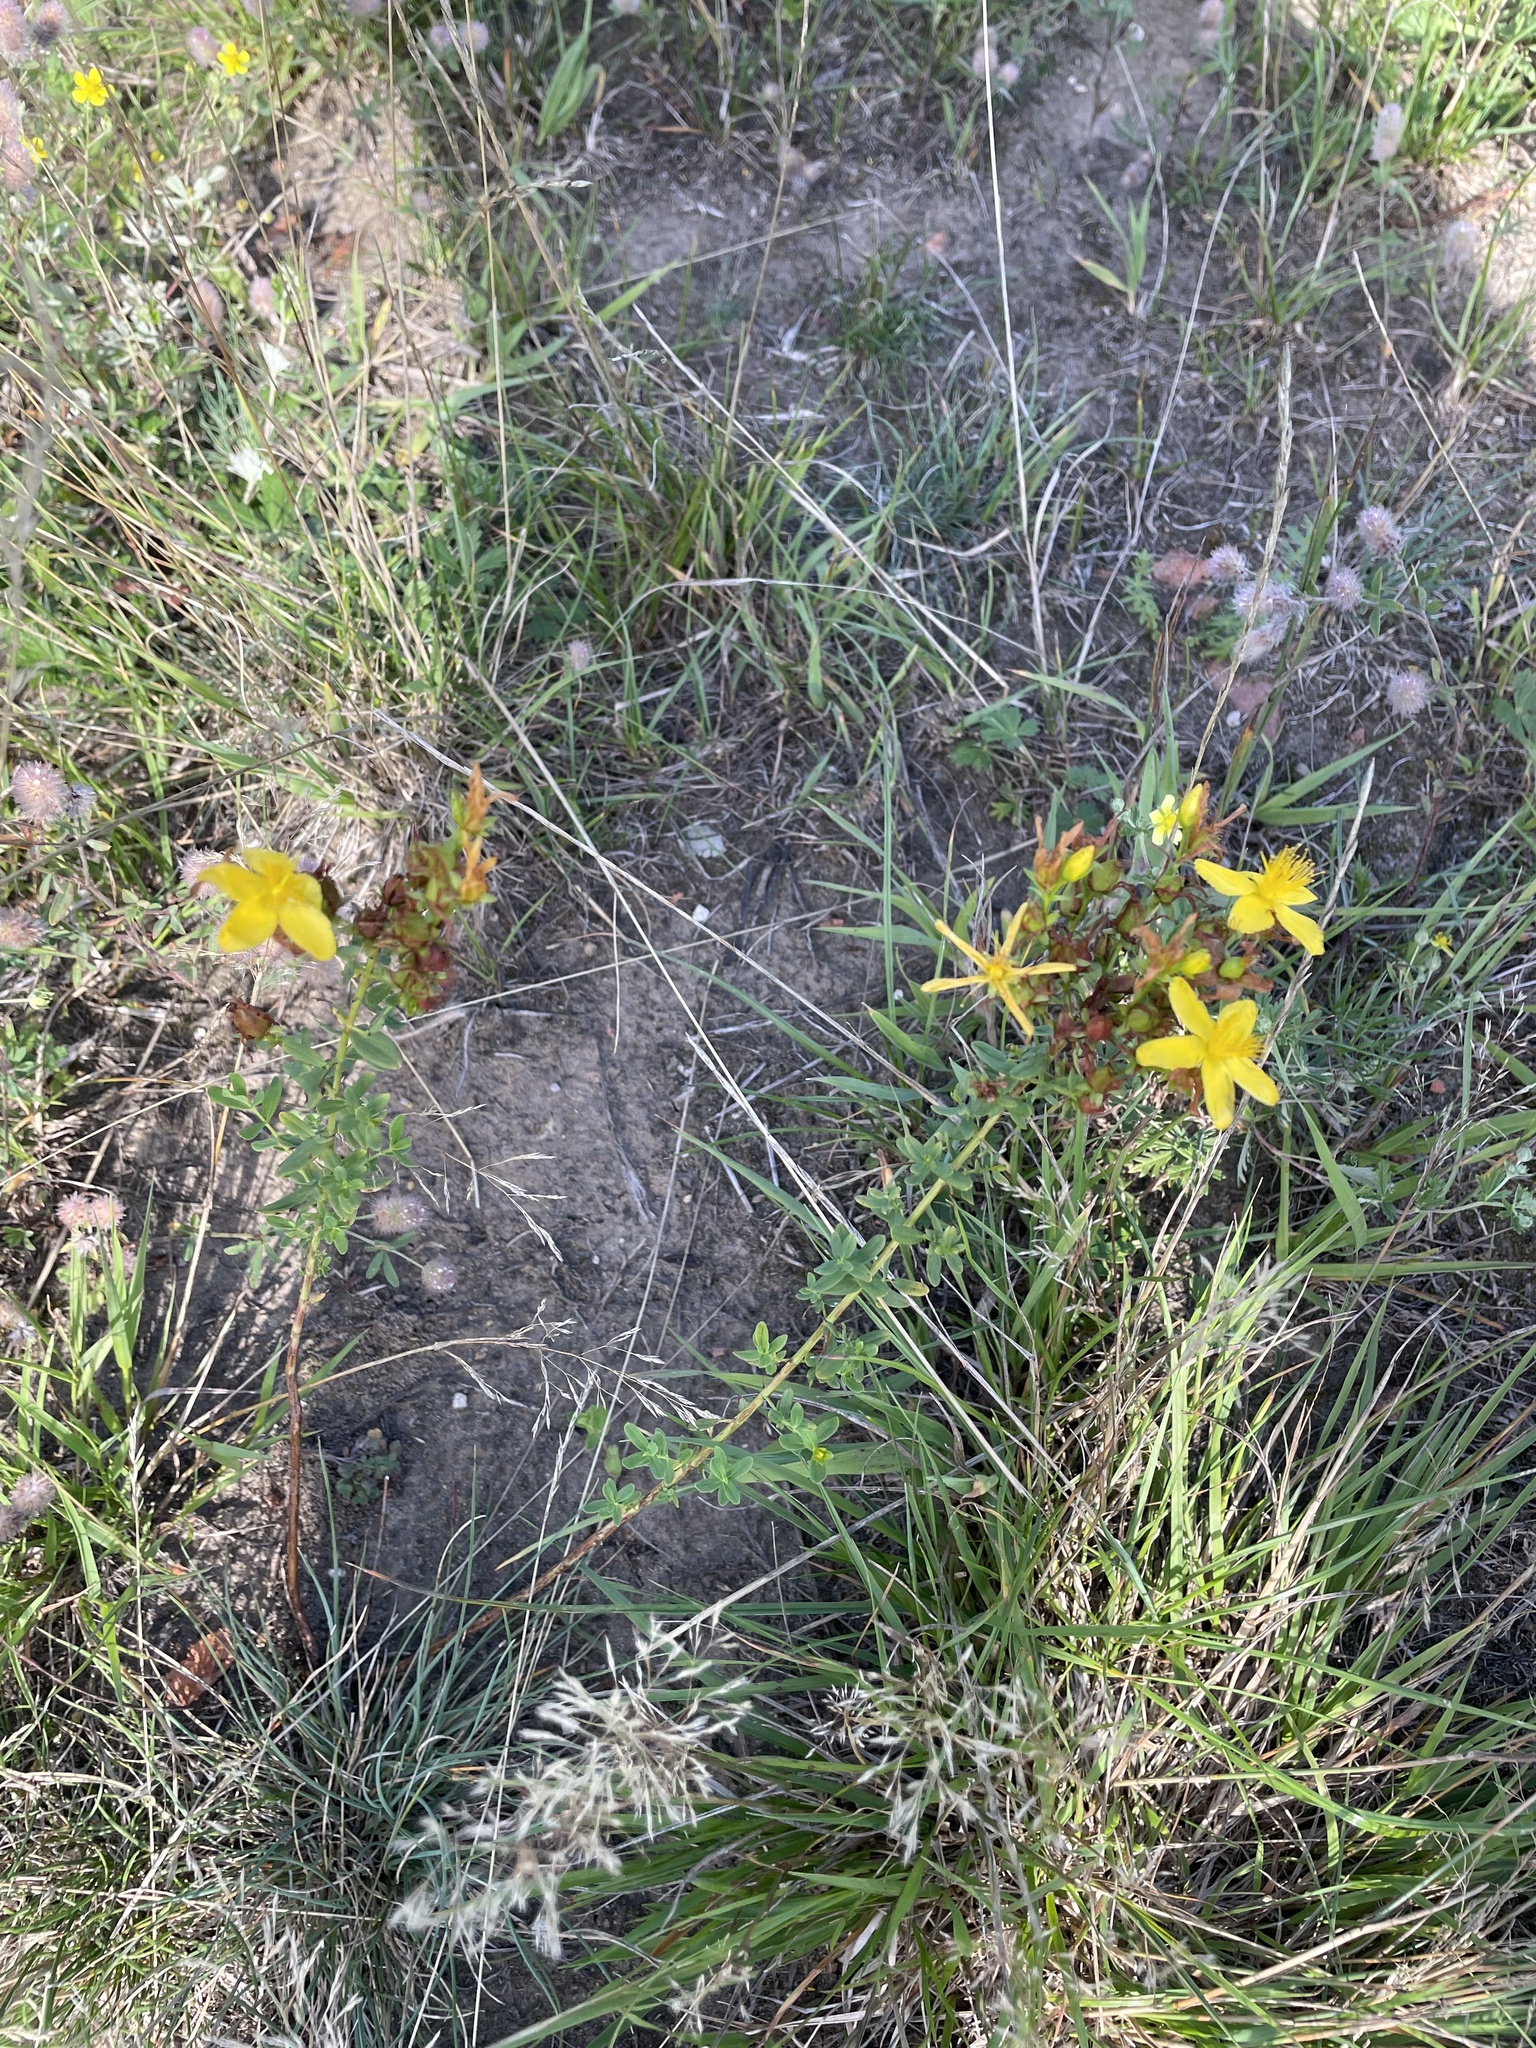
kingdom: Plantae
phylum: Tracheophyta
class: Magnoliopsida
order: Malpighiales
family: Hypericaceae
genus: Hypericum
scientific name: Hypericum perforatum
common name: Common st. johnswort
